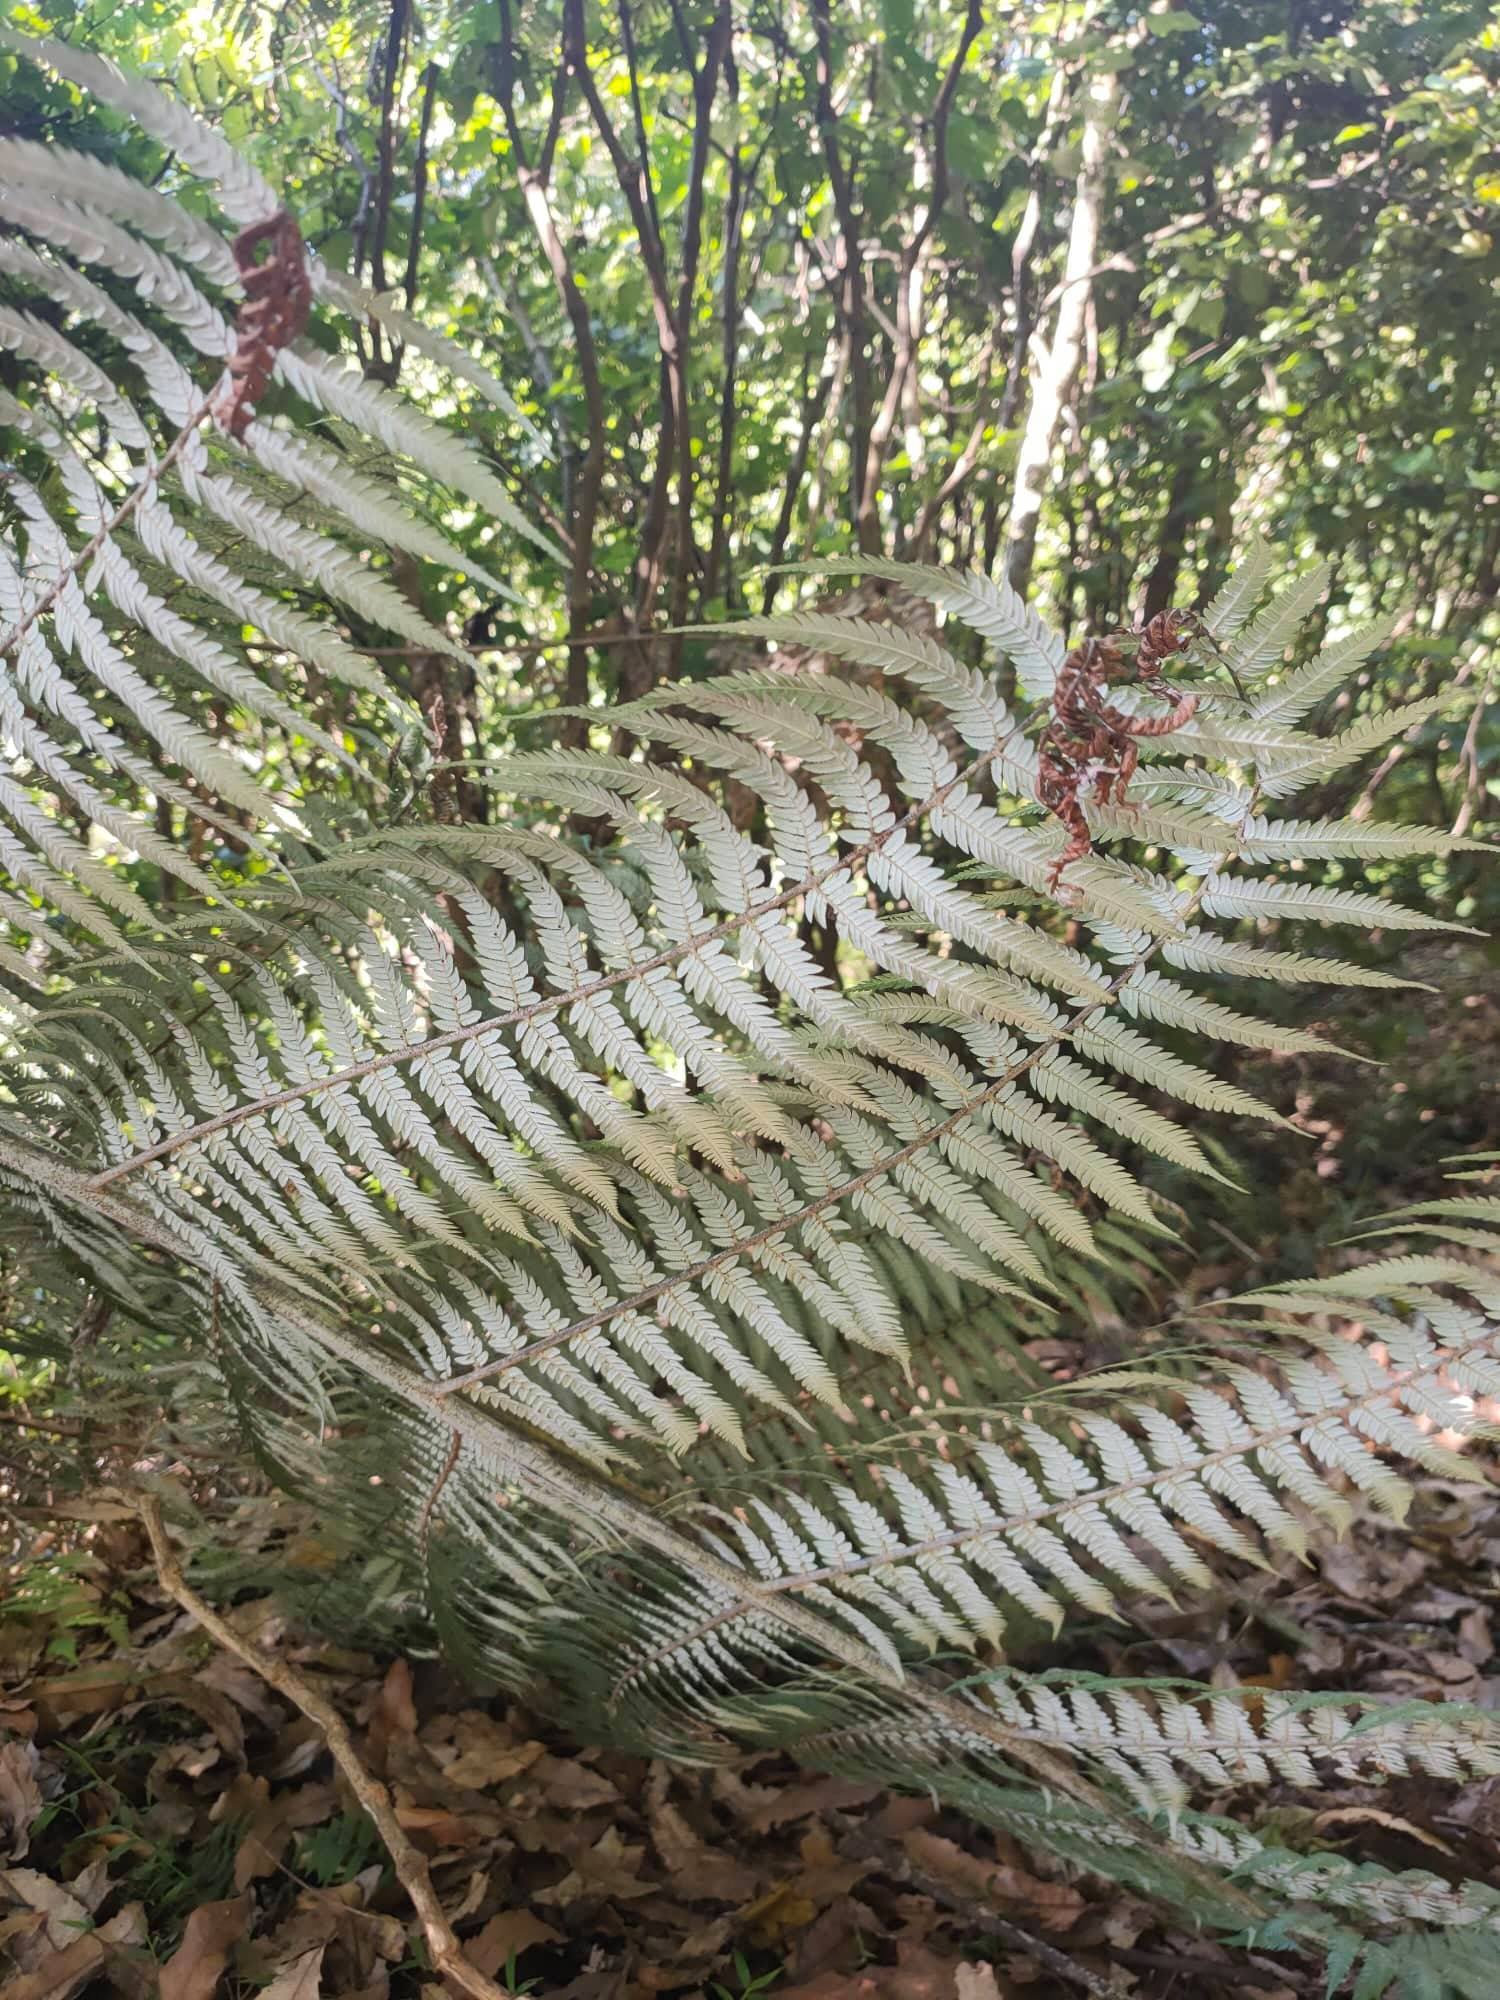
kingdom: Plantae
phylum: Tracheophyta
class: Polypodiopsida
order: Cyatheales
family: Cyatheaceae
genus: Alsophila
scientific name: Alsophila dealbata
